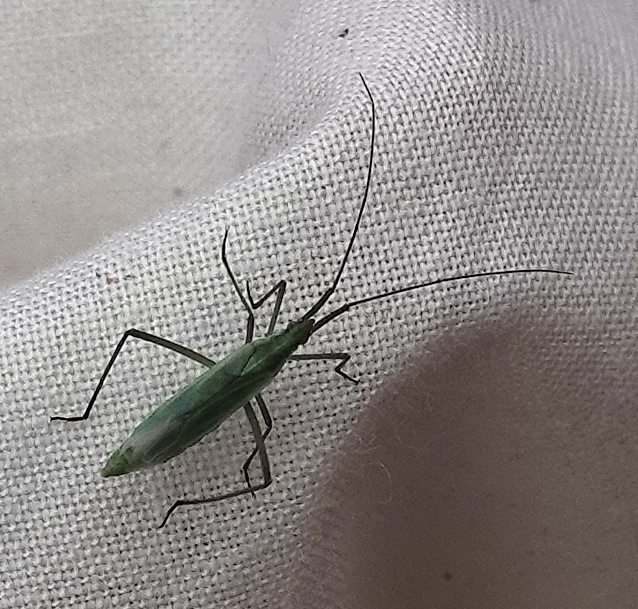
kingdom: Animalia
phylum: Arthropoda
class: Insecta
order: Hemiptera
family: Miridae
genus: Megaloceroea
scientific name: Megaloceroea recticornis
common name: Plant bug
